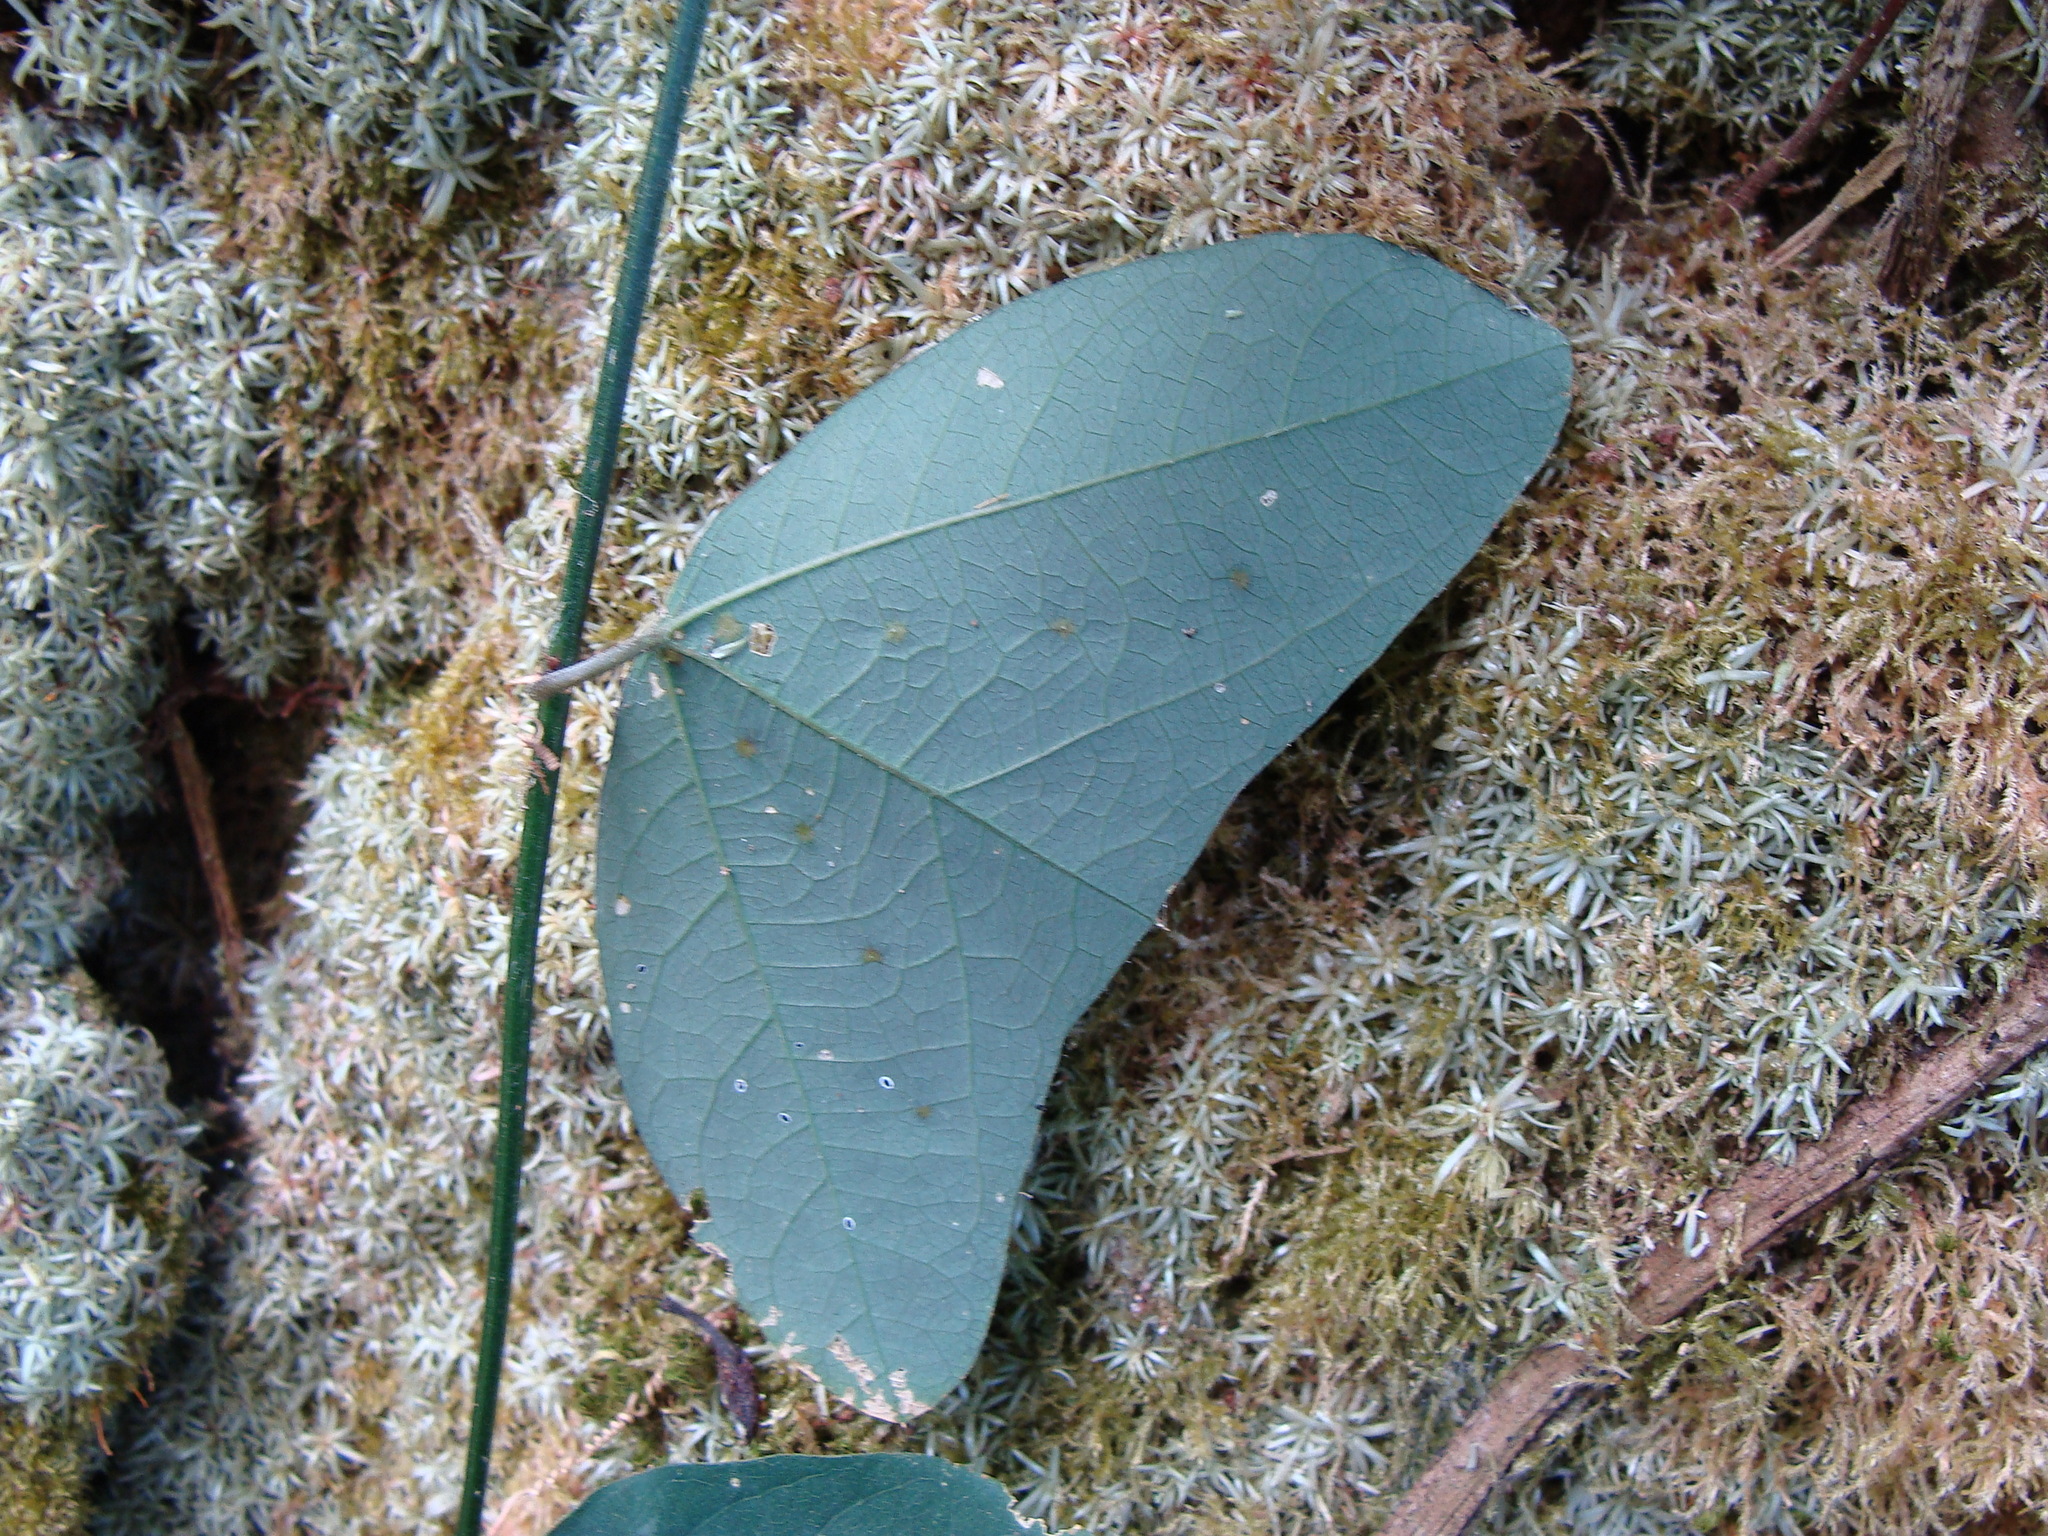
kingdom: Plantae
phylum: Tracheophyta
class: Magnoliopsida
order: Malpighiales
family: Passifloraceae
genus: Passiflora
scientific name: Passiflora biflora
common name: Twoflower passionflower
